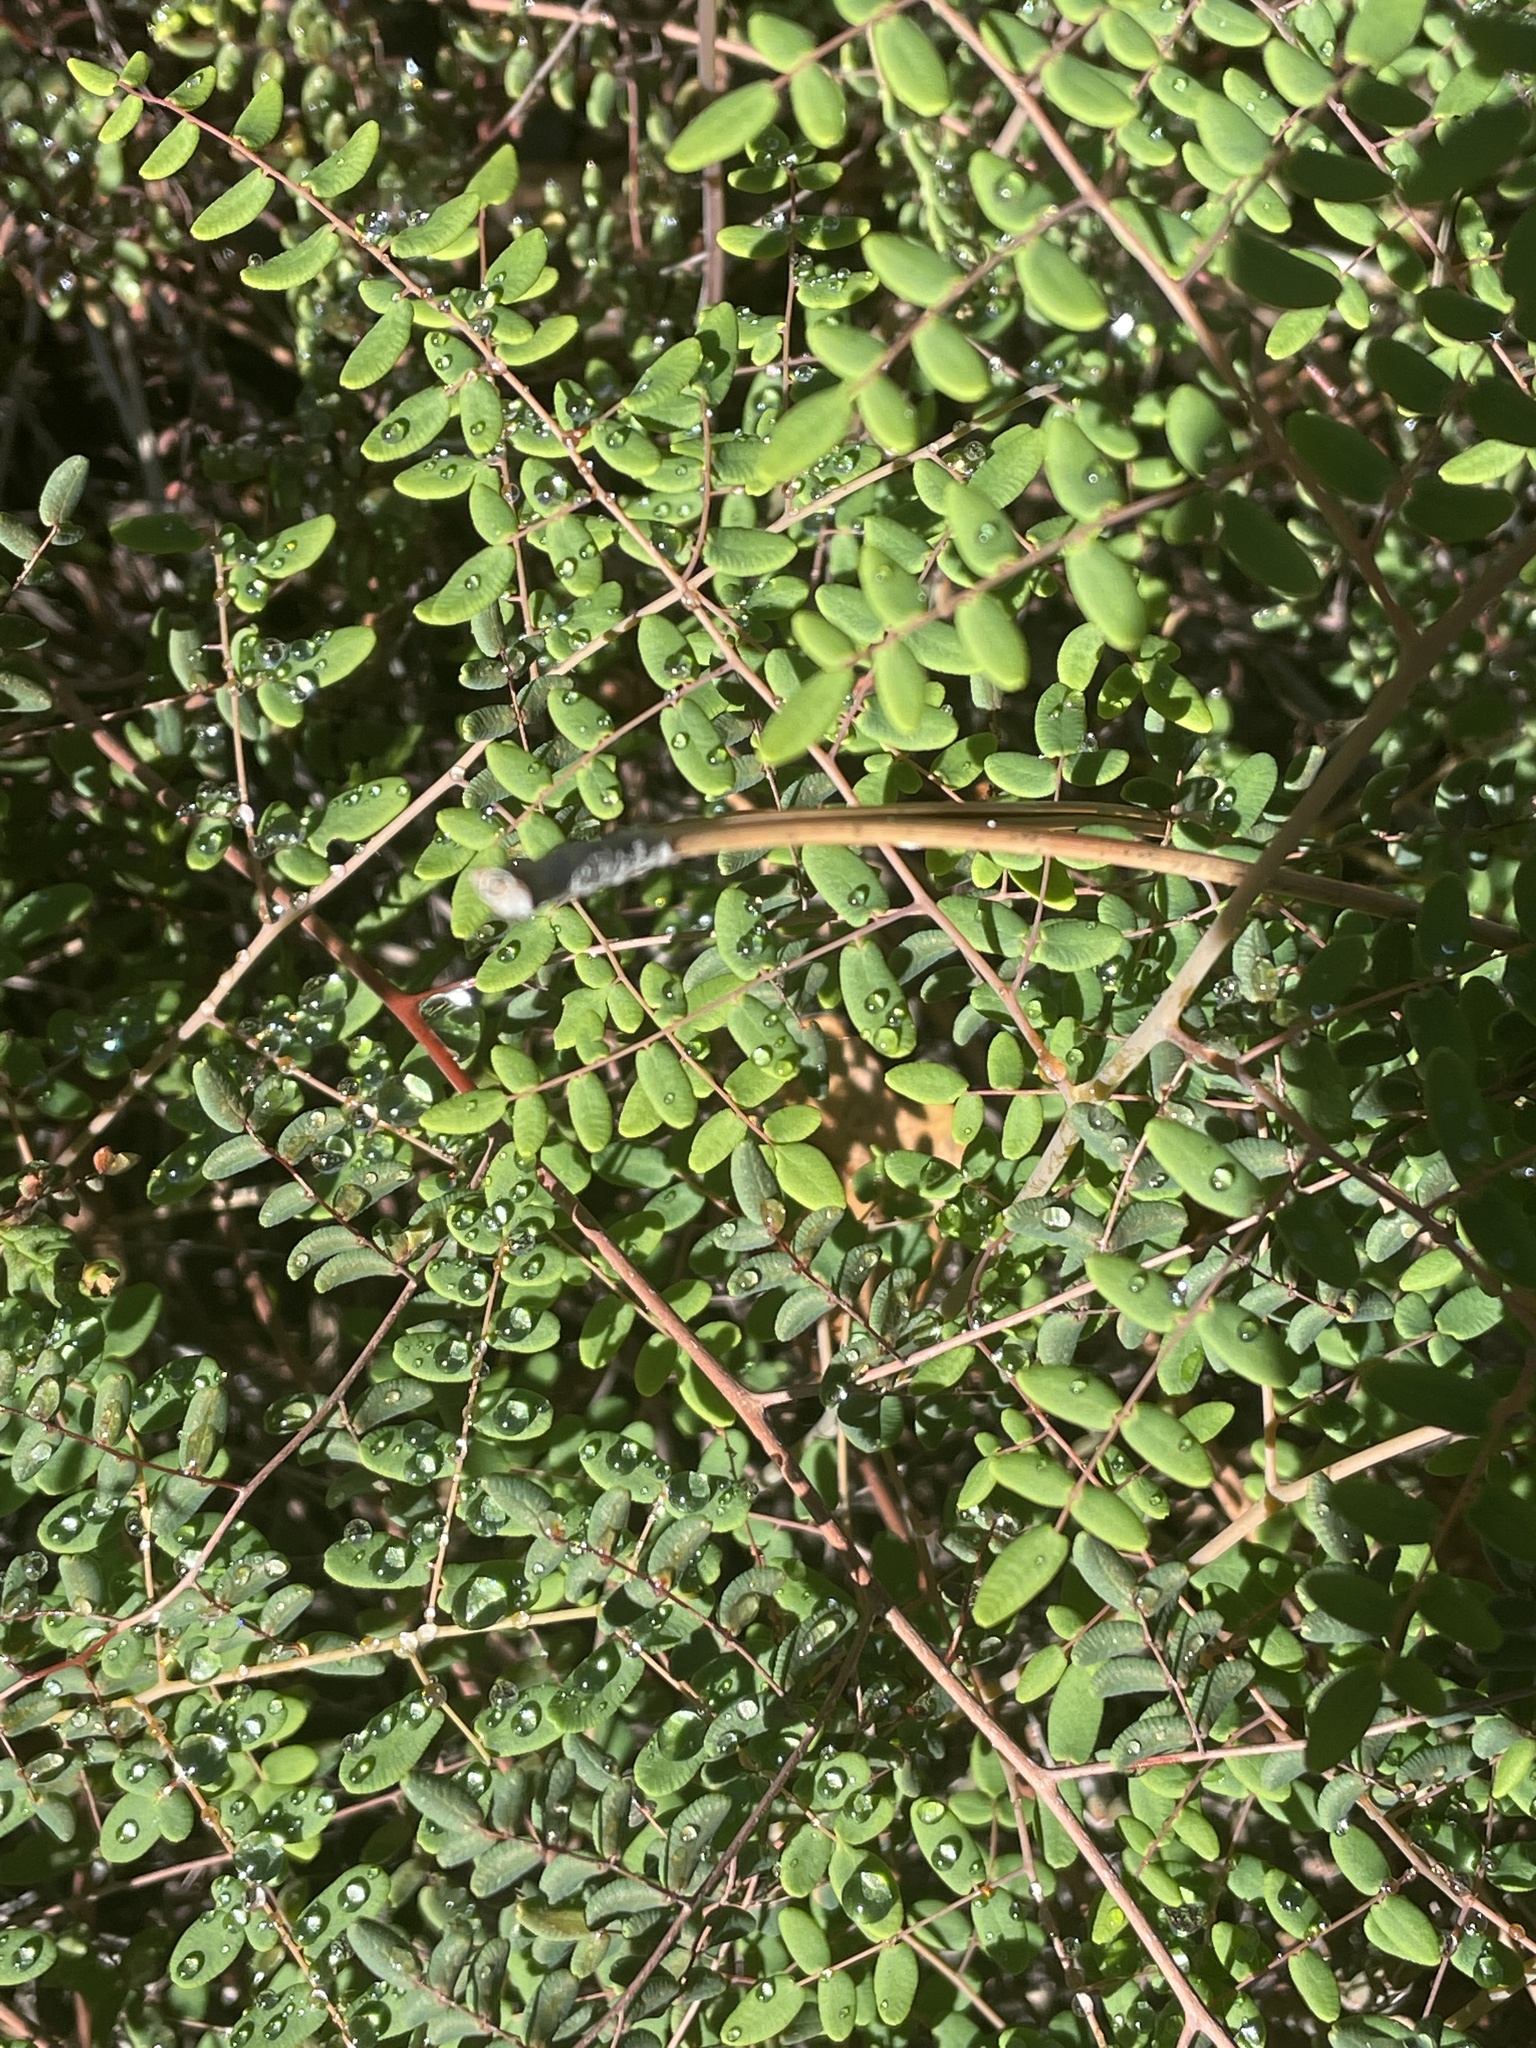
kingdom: Plantae
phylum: Tracheophyta
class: Polypodiopsida
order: Polypodiales
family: Pteridaceae
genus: Pellaea
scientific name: Pellaea andromedifolia
